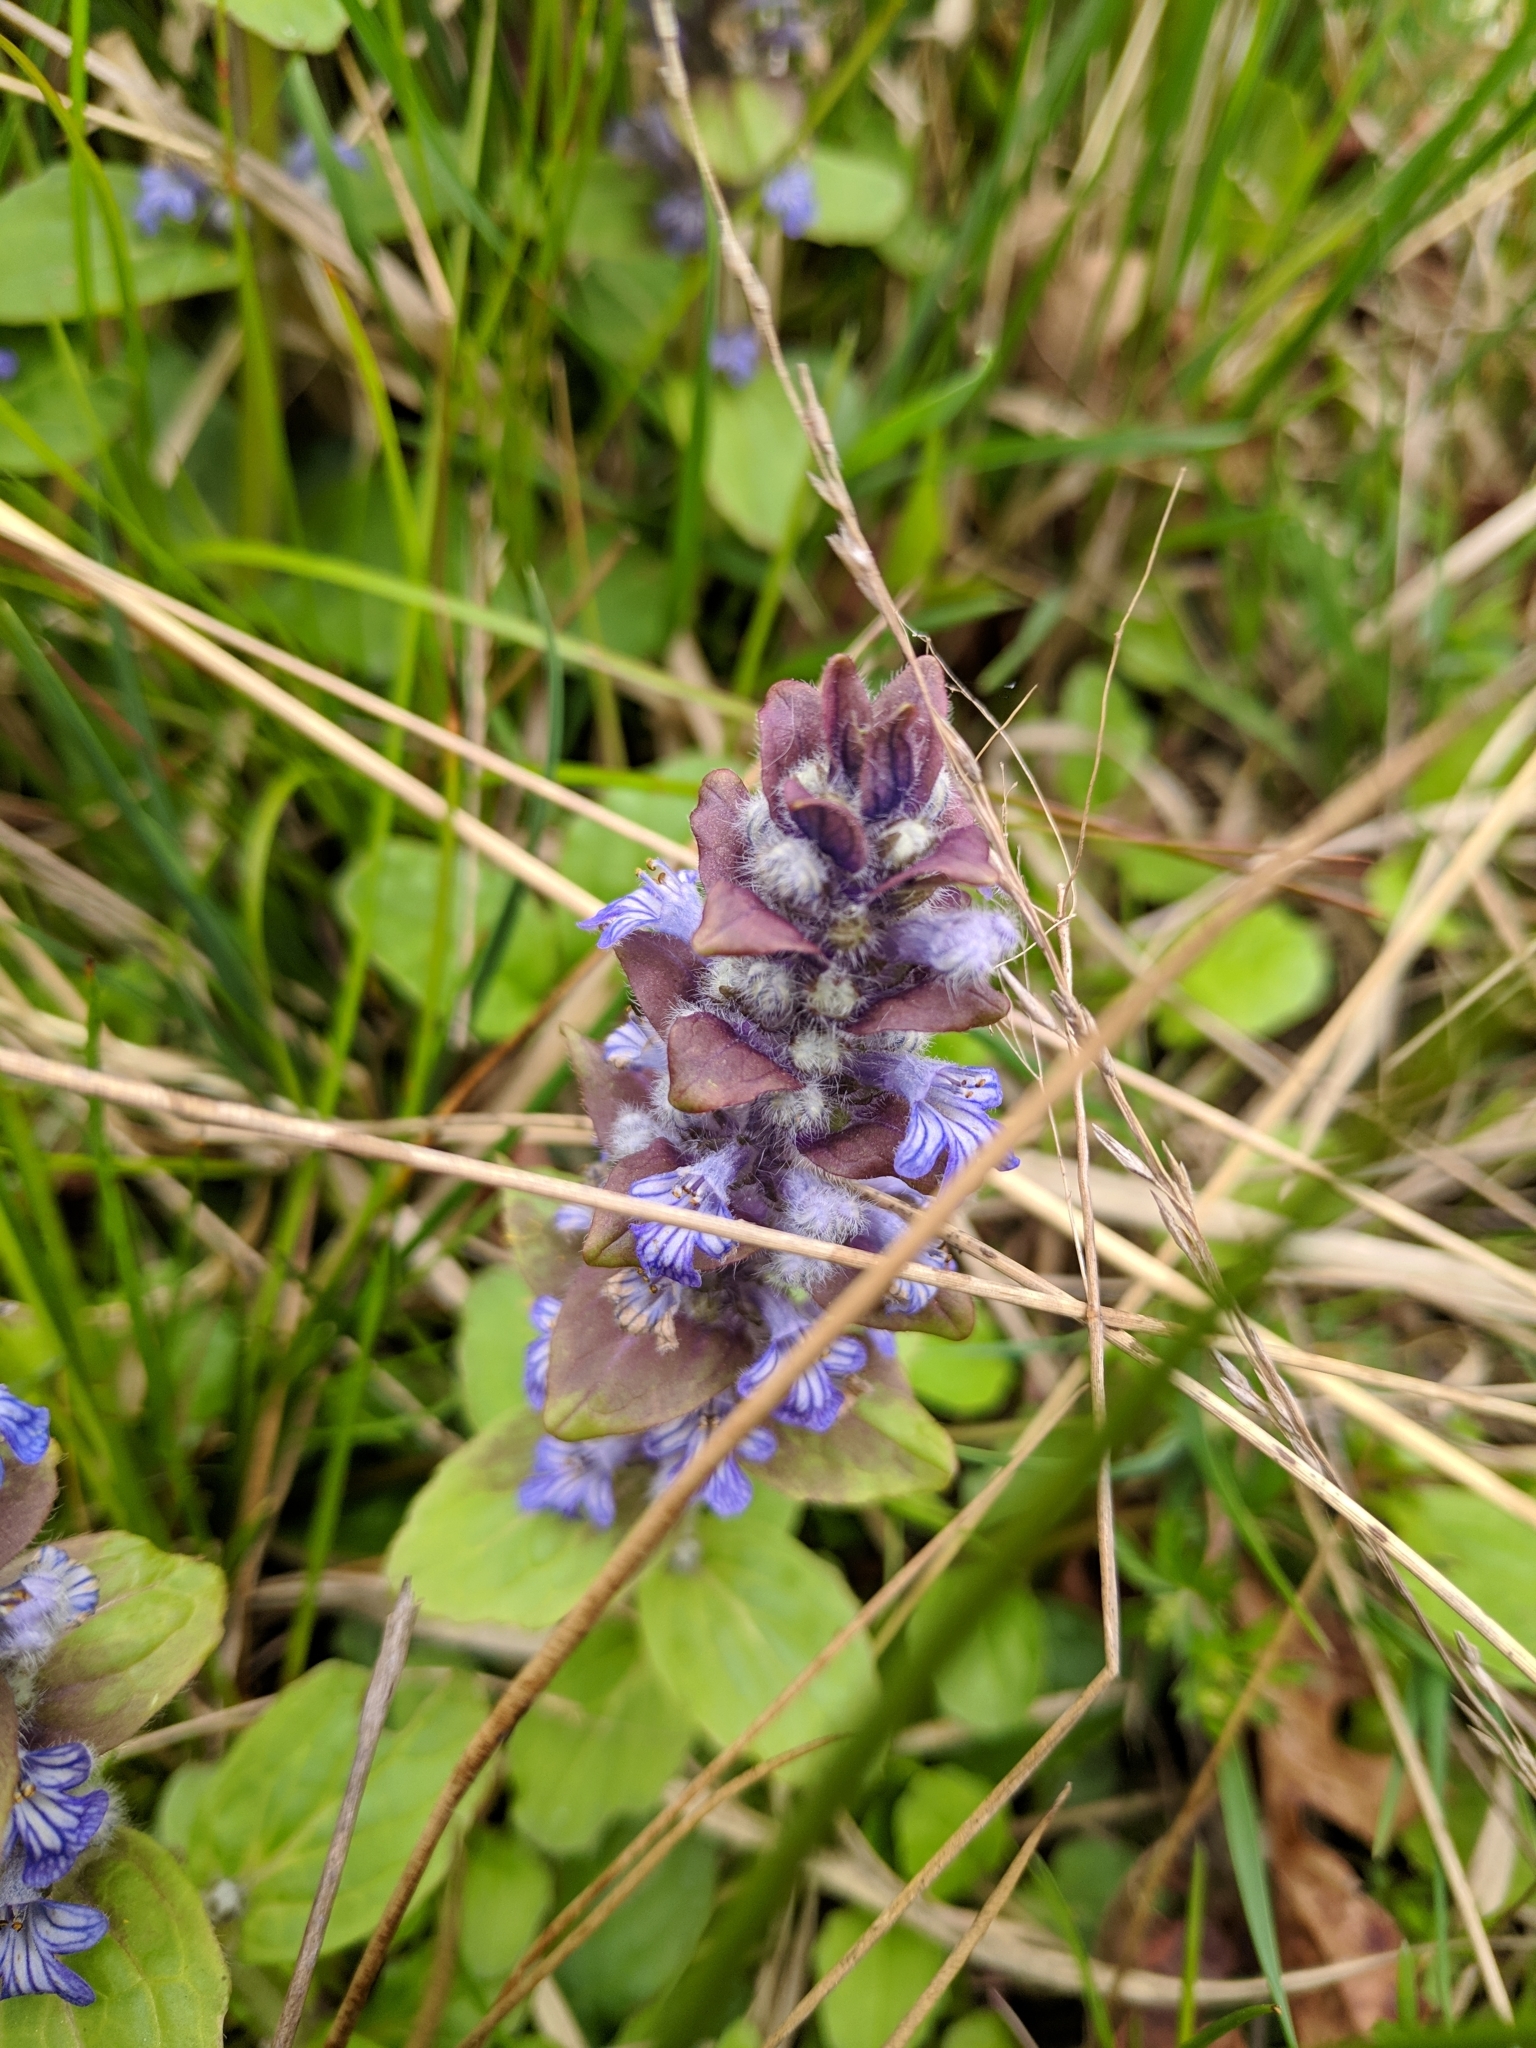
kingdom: Plantae
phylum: Tracheophyta
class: Magnoliopsida
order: Lamiales
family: Lamiaceae
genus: Ajuga
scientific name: Ajuga reptans
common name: Bugle
